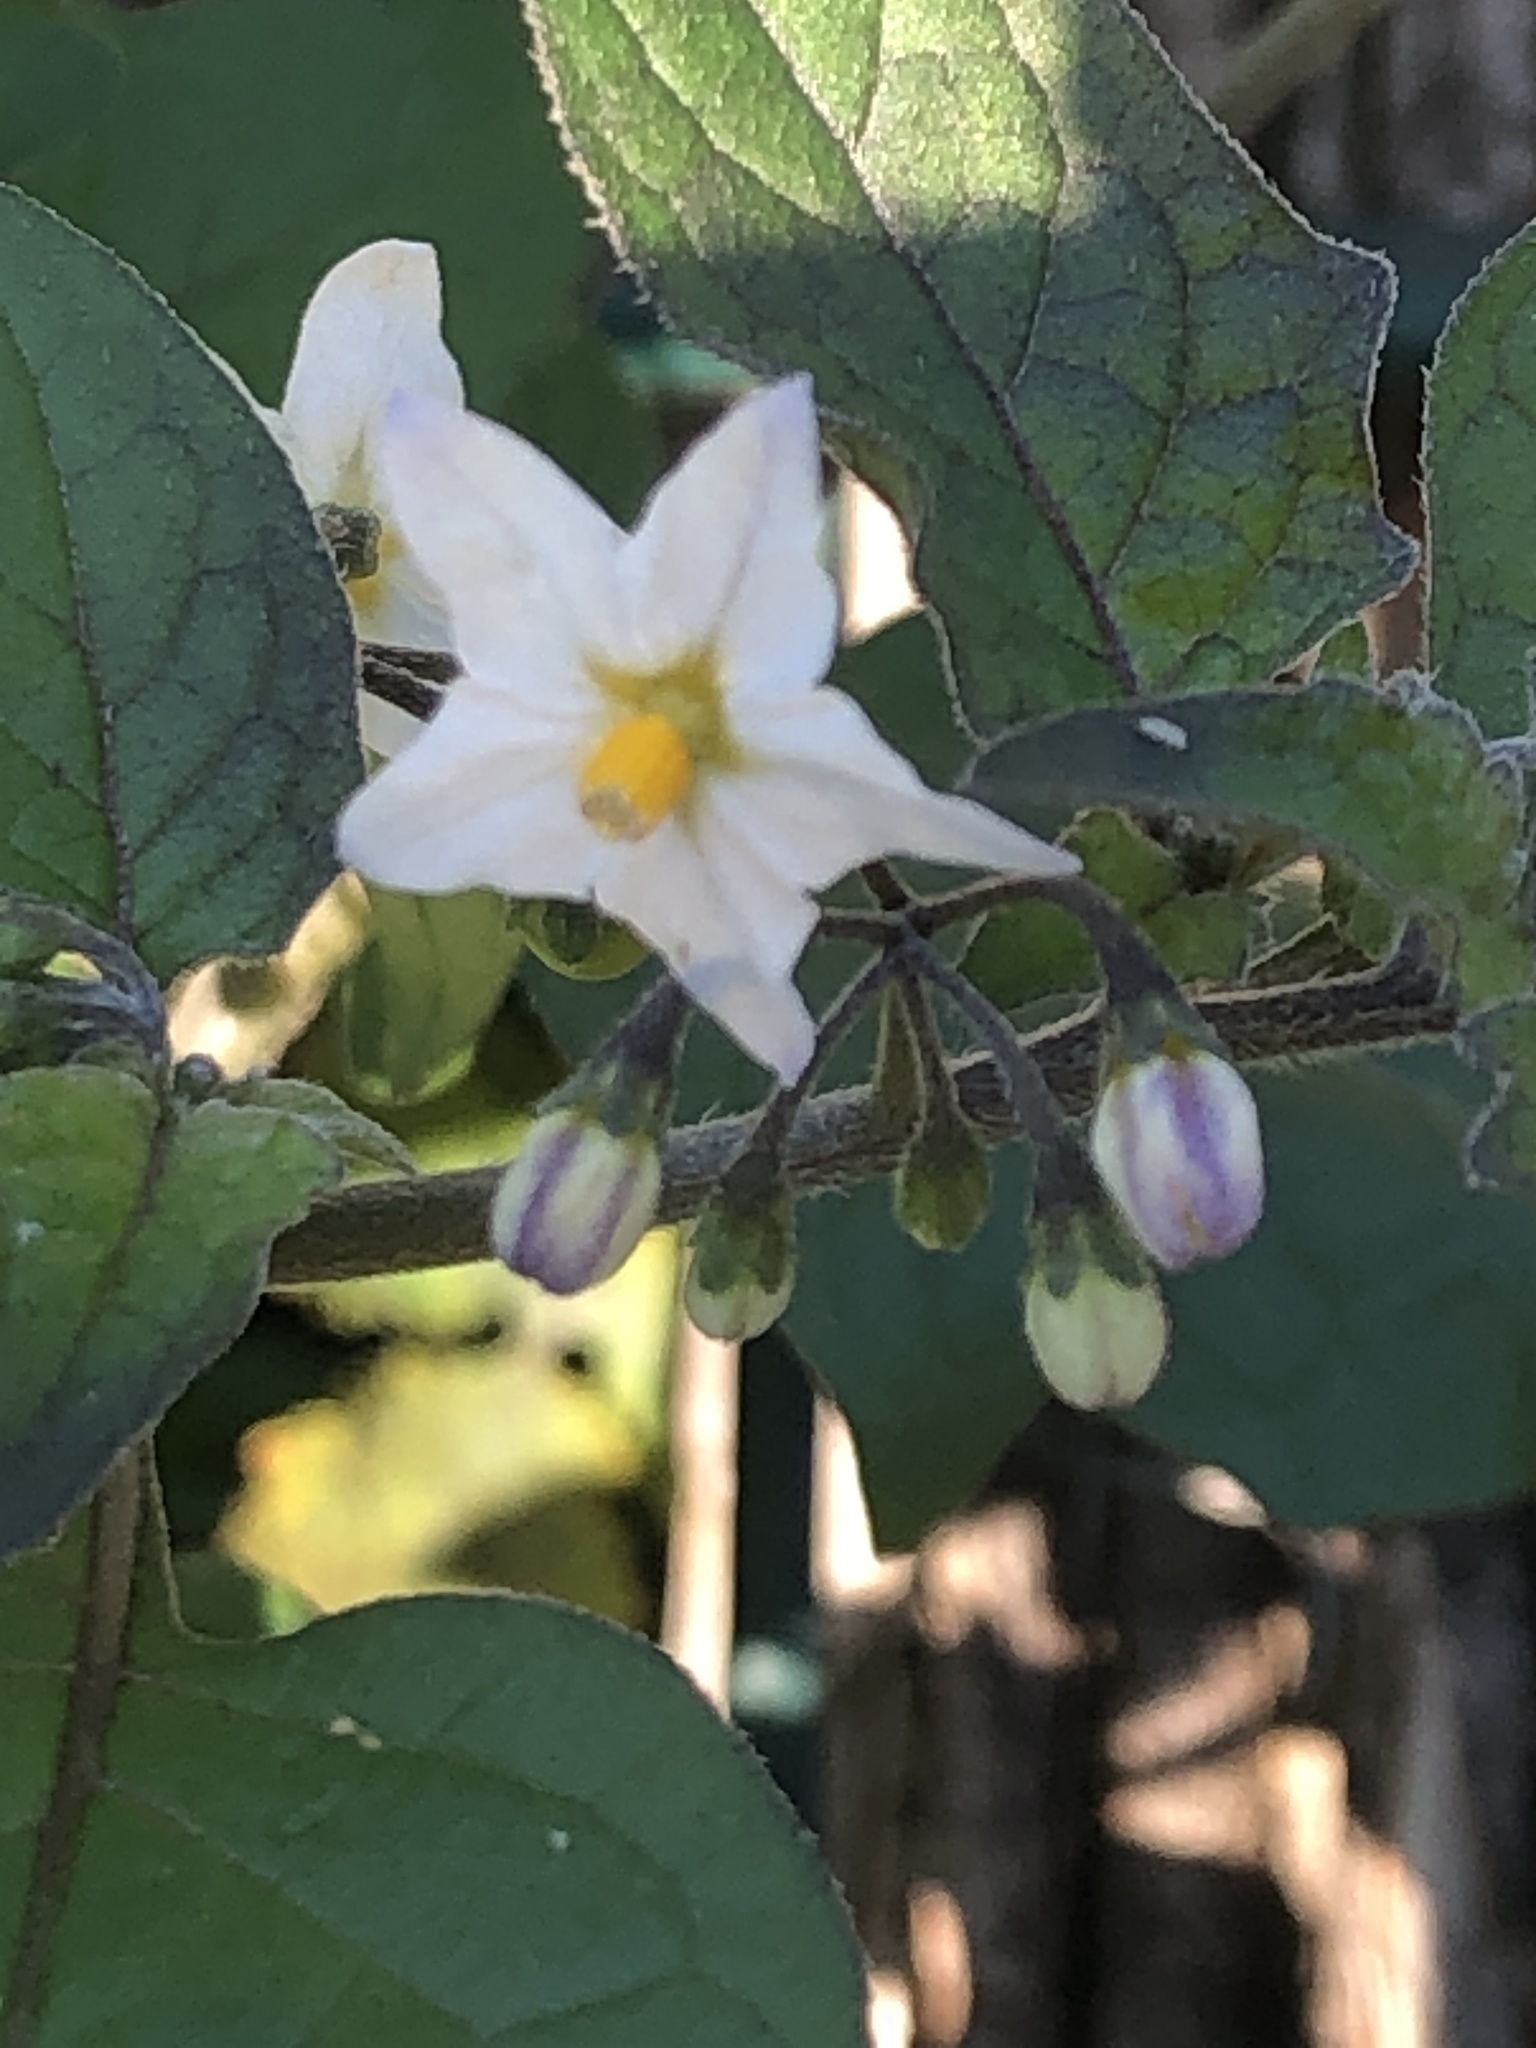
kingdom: Plantae
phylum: Tracheophyta
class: Magnoliopsida
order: Solanales
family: Solanaceae
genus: Solanum
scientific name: Solanum nigrum
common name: Black nightshade
